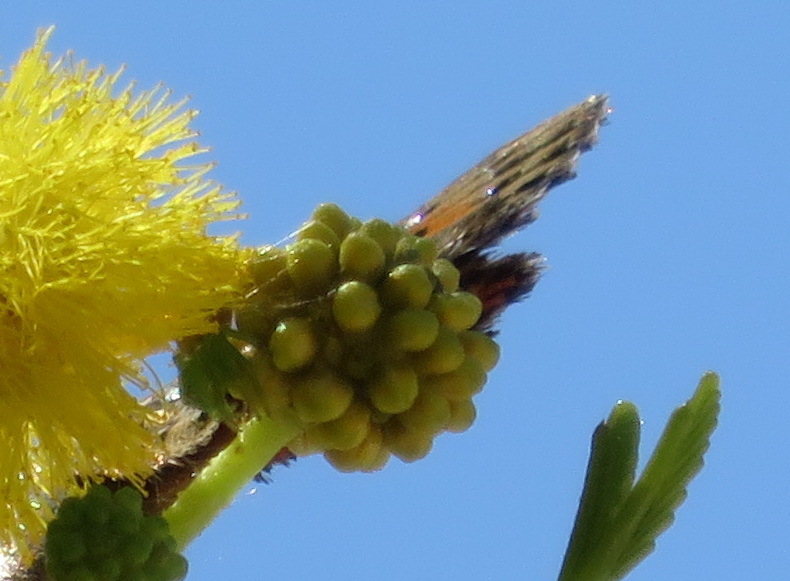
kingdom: Animalia
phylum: Arthropoda
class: Insecta
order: Lepidoptera
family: Lycaenidae
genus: Aloeides
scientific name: Aloeides damarensis
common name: Damara russet
